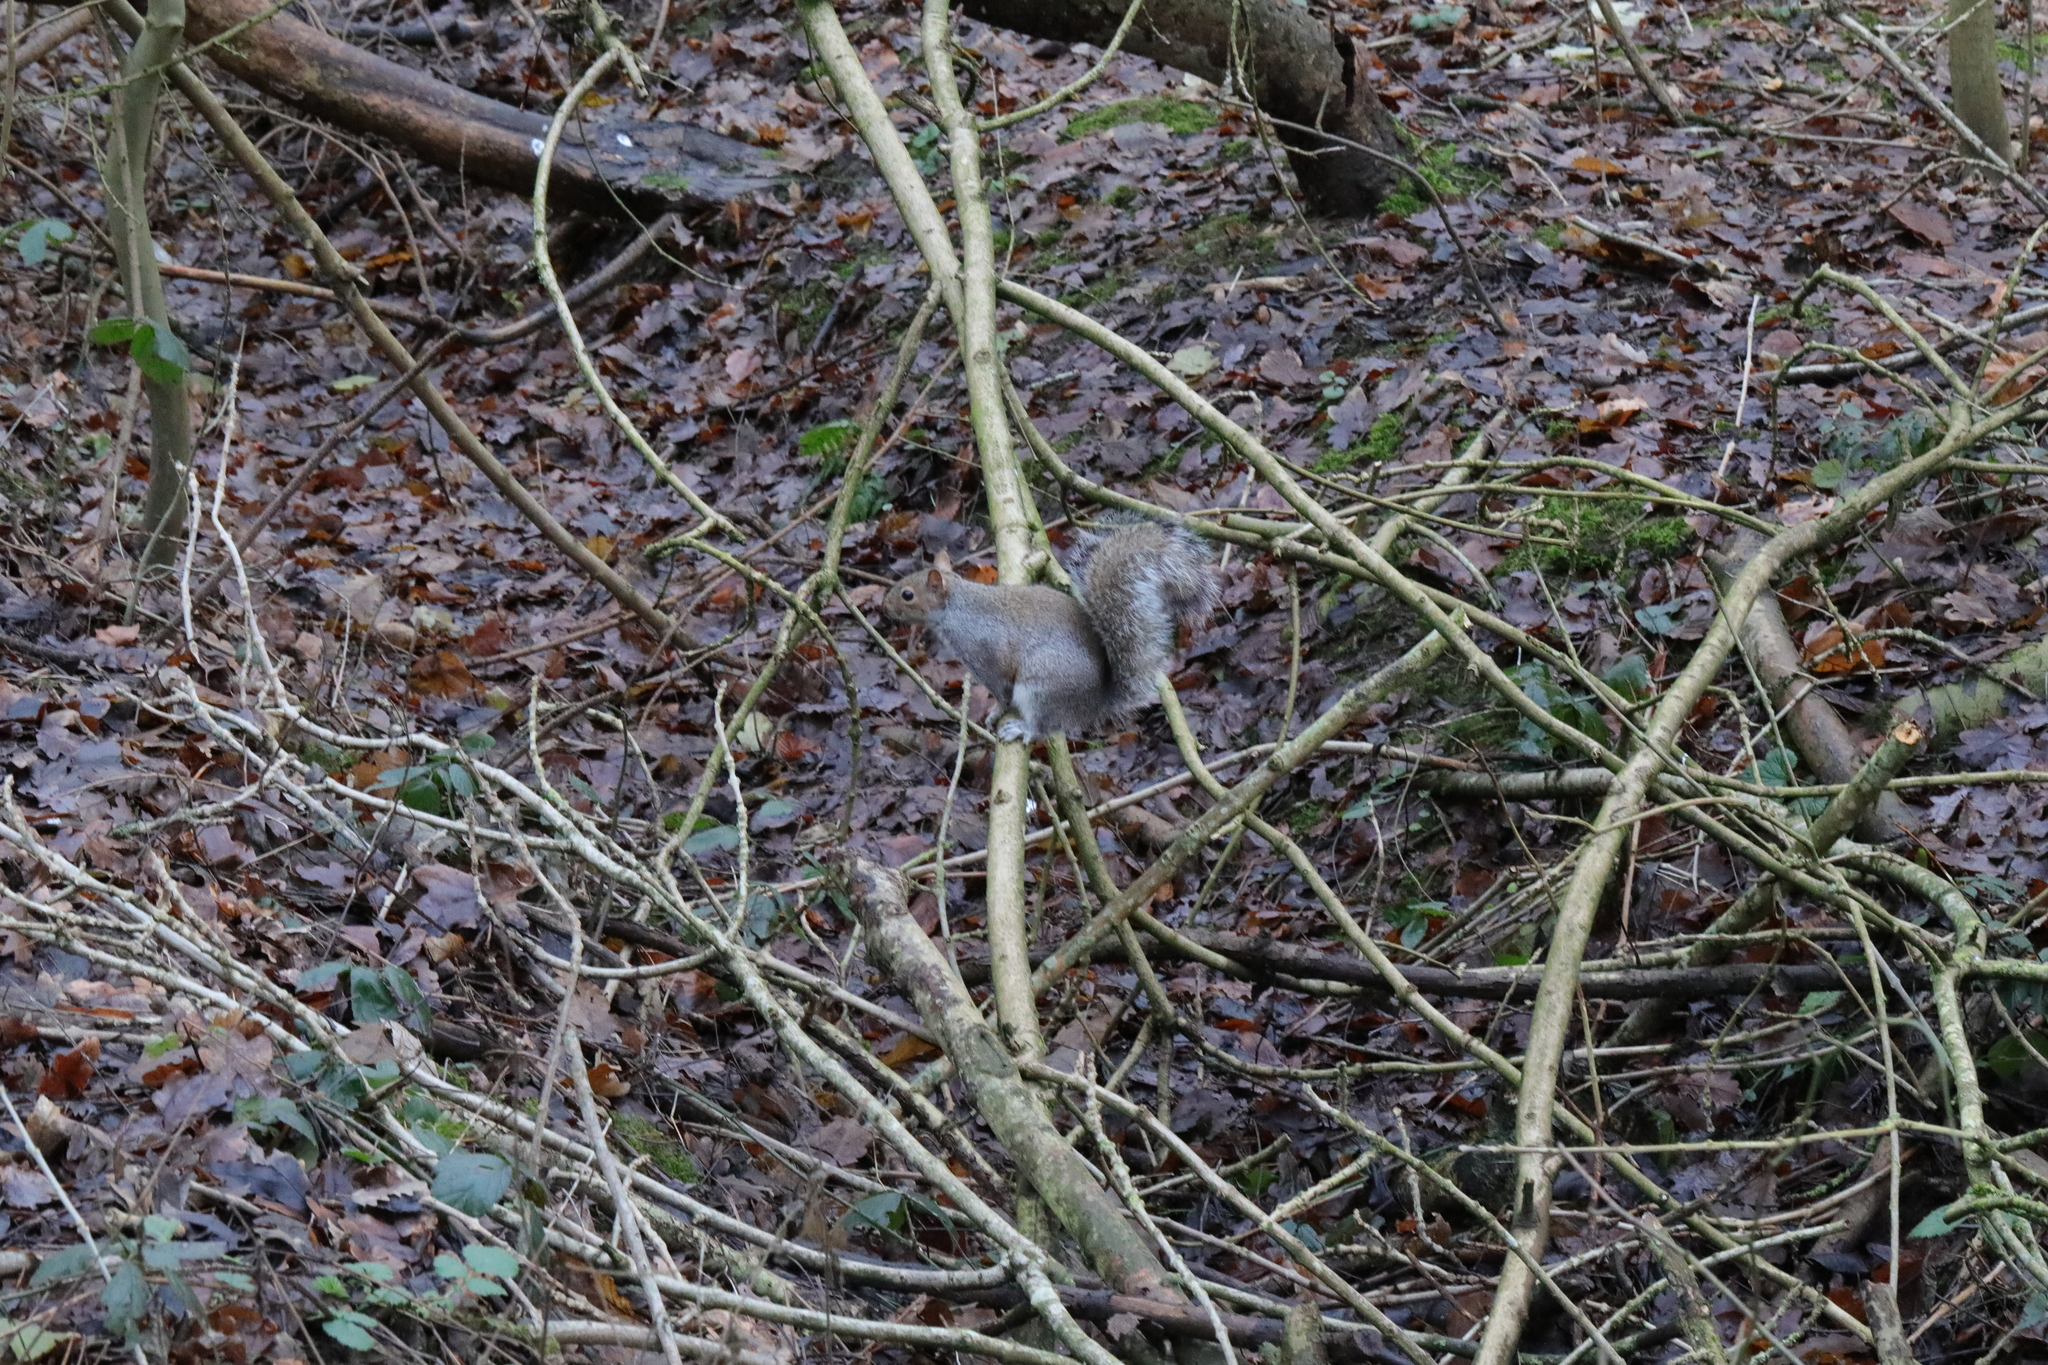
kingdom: Animalia
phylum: Chordata
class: Mammalia
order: Rodentia
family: Sciuridae
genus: Sciurus
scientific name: Sciurus carolinensis
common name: Eastern gray squirrel
